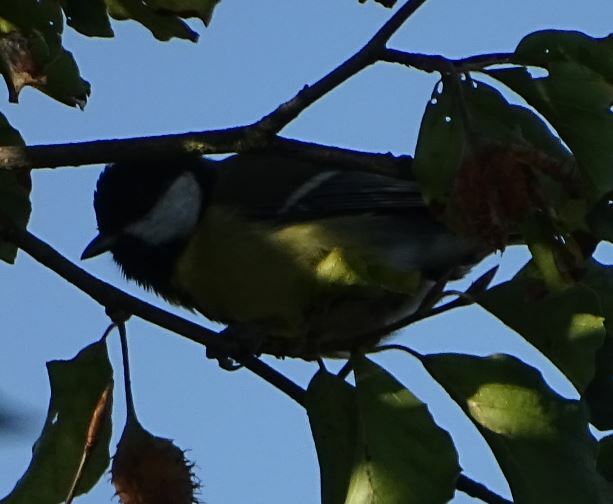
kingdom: Animalia
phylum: Chordata
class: Aves
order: Passeriformes
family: Paridae
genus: Parus
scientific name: Parus major
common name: Great tit
